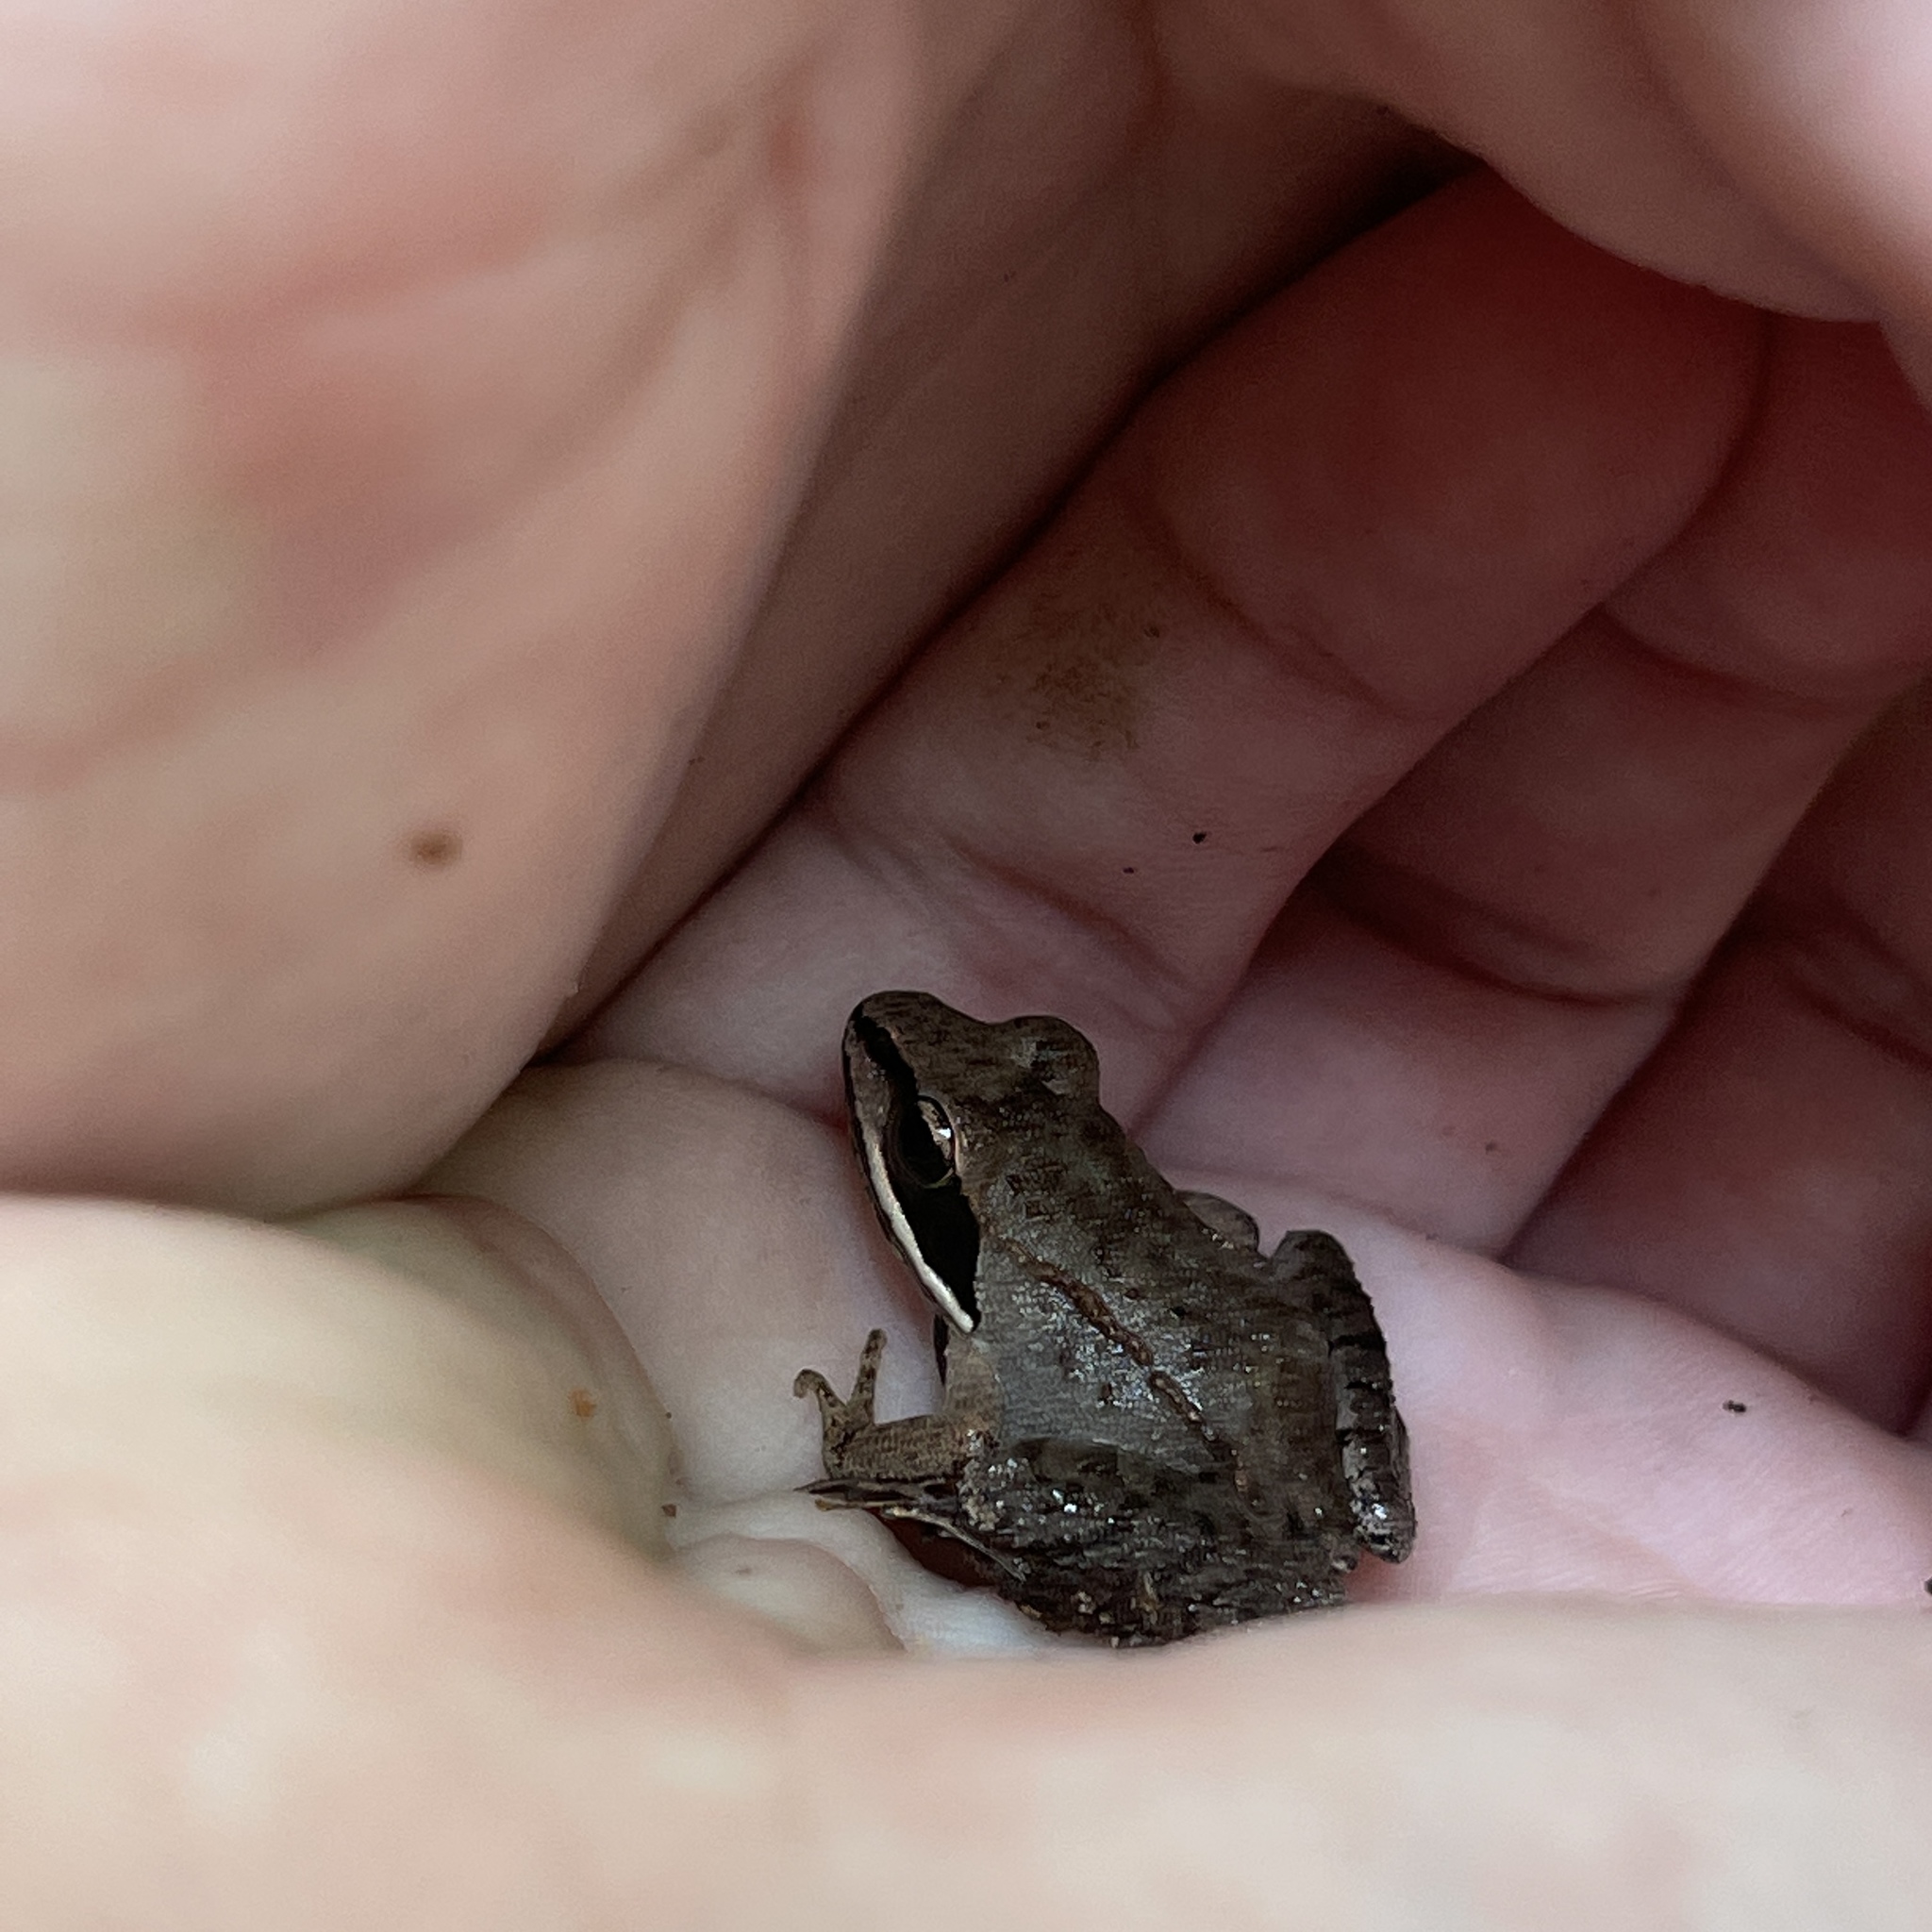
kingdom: Animalia
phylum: Chordata
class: Amphibia
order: Anura
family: Ranidae
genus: Lithobates
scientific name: Lithobates sylvaticus
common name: Wood frog
